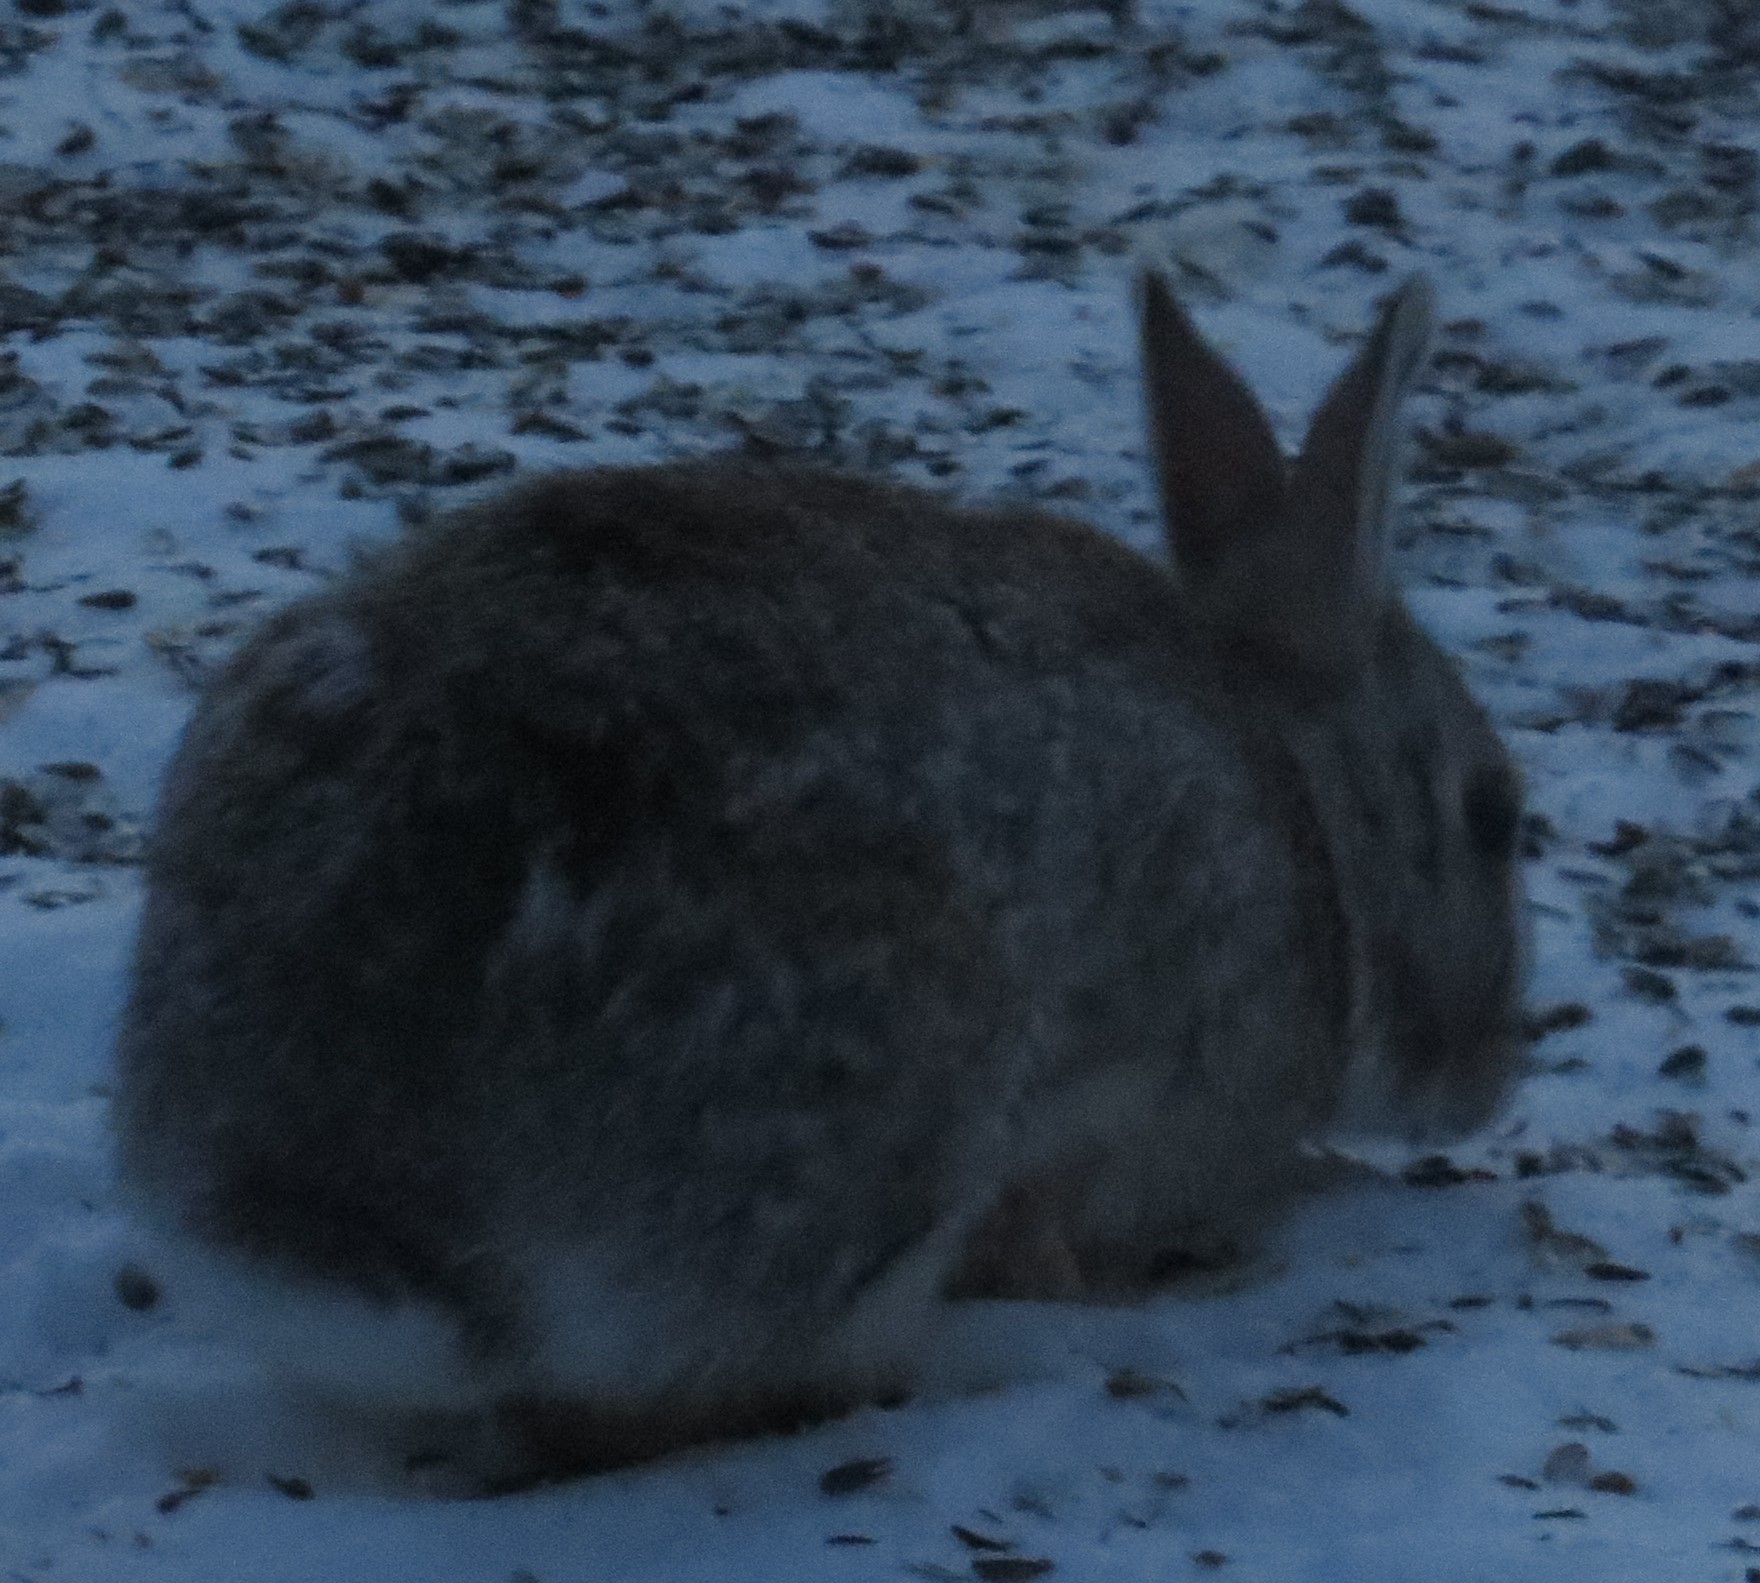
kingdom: Animalia
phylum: Chordata
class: Mammalia
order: Lagomorpha
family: Leporidae
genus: Sylvilagus
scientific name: Sylvilagus floridanus
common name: Eastern cottontail
